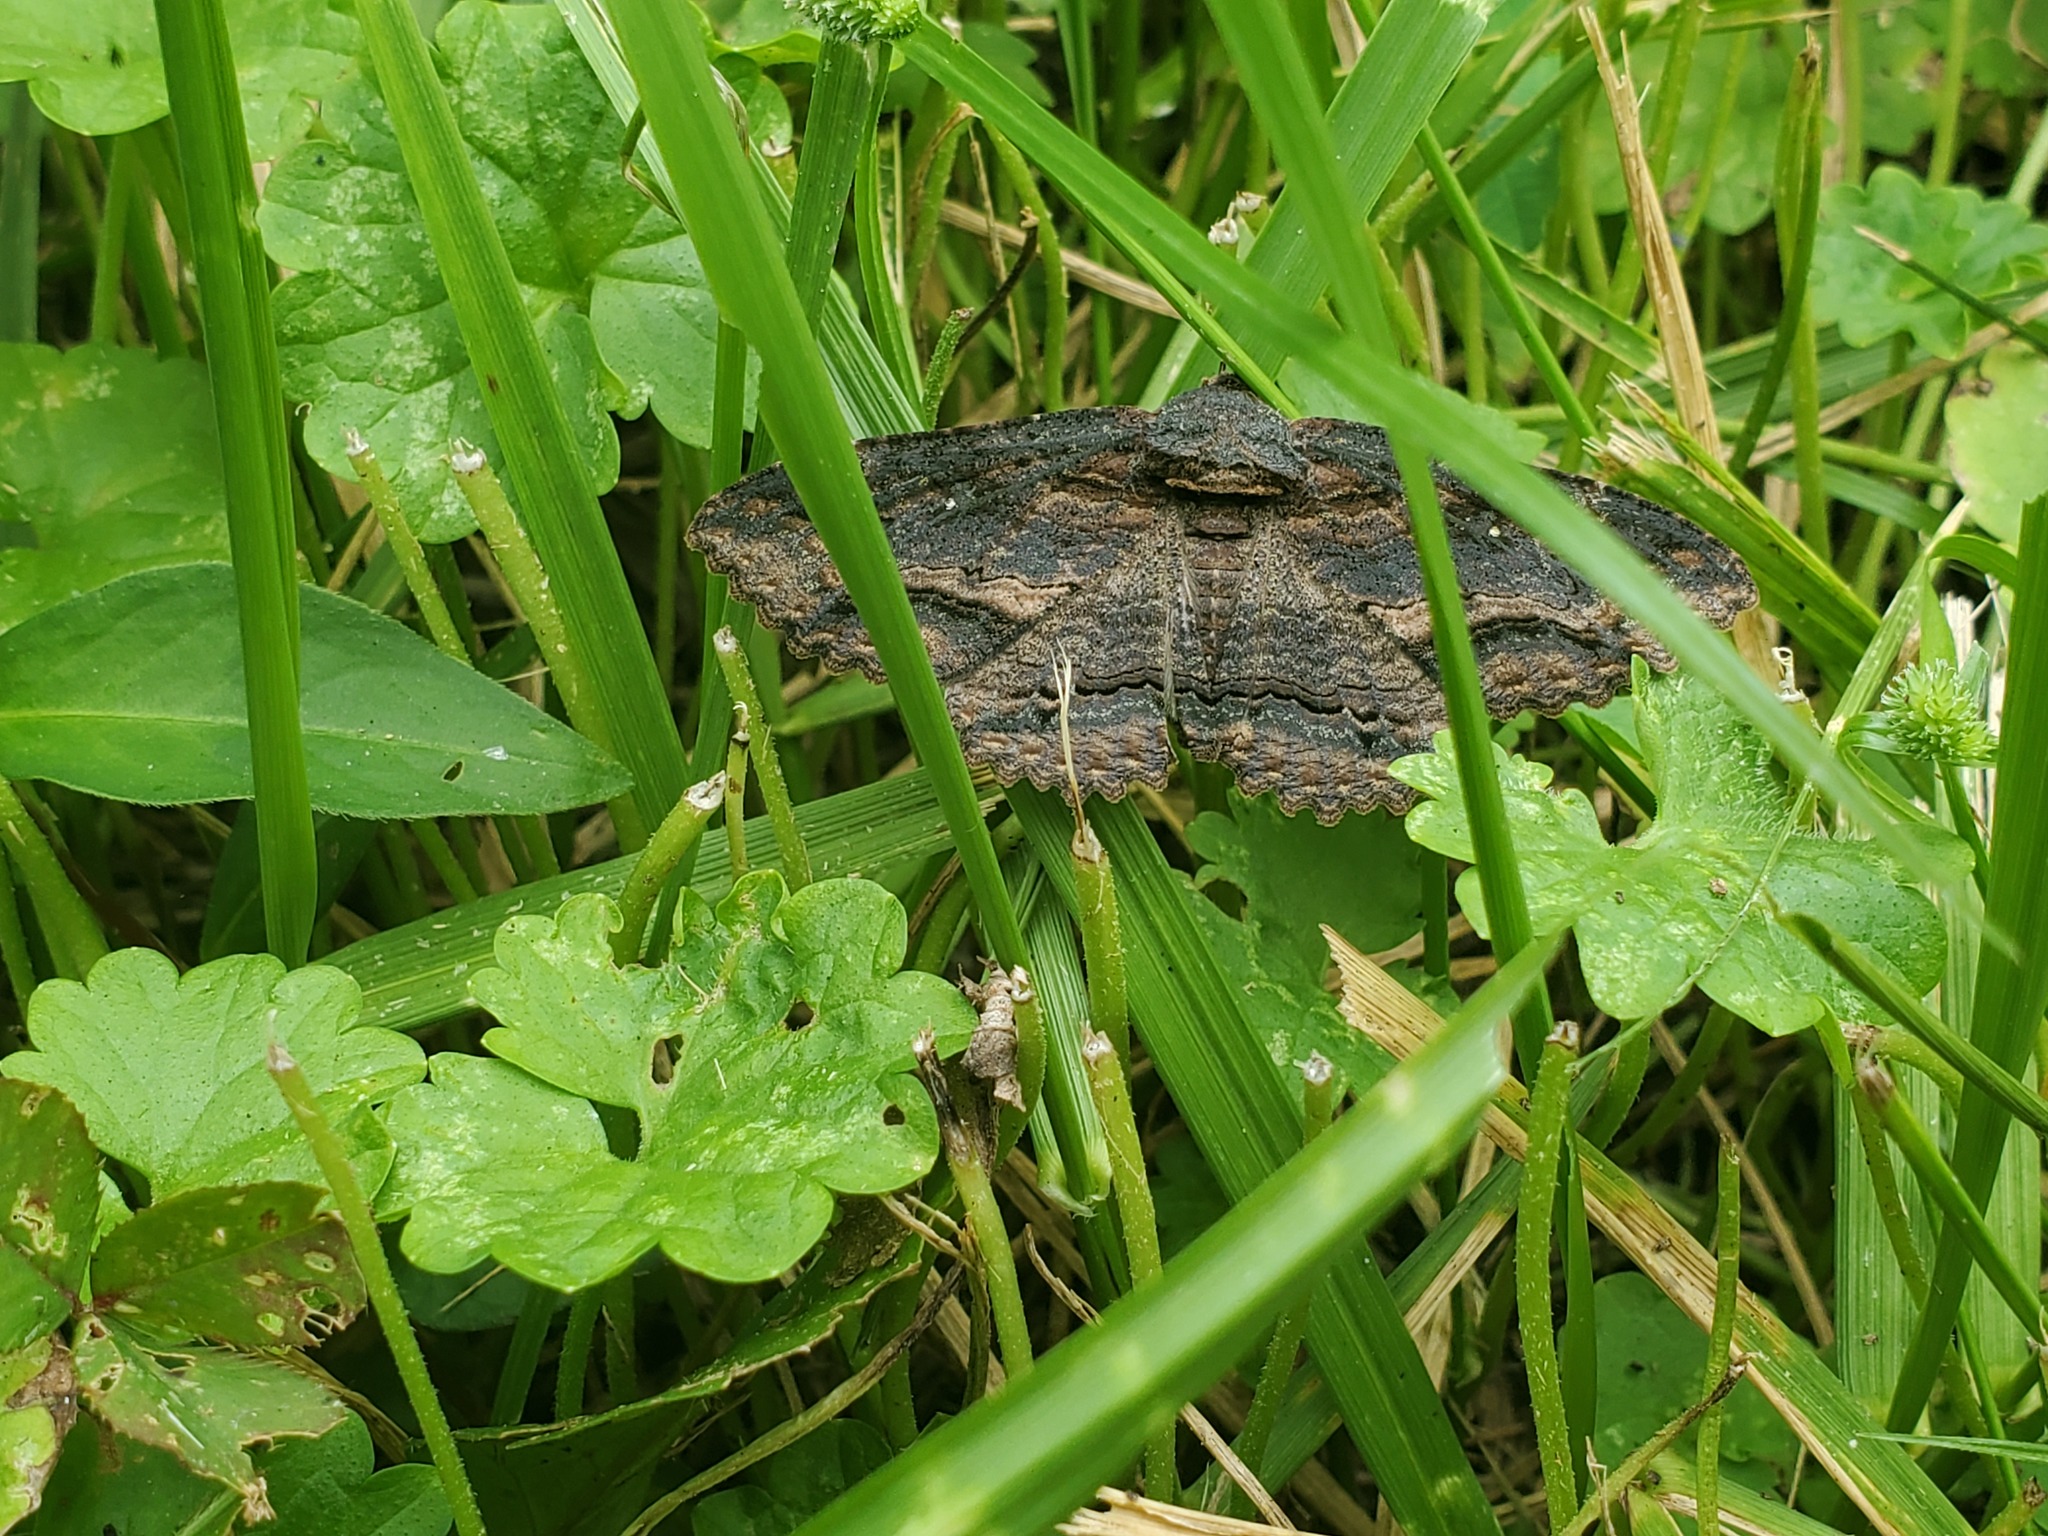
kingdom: Animalia
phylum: Arthropoda
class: Insecta
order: Lepidoptera
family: Erebidae
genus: Zale
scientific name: Zale lunata
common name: Lunate zale moth
